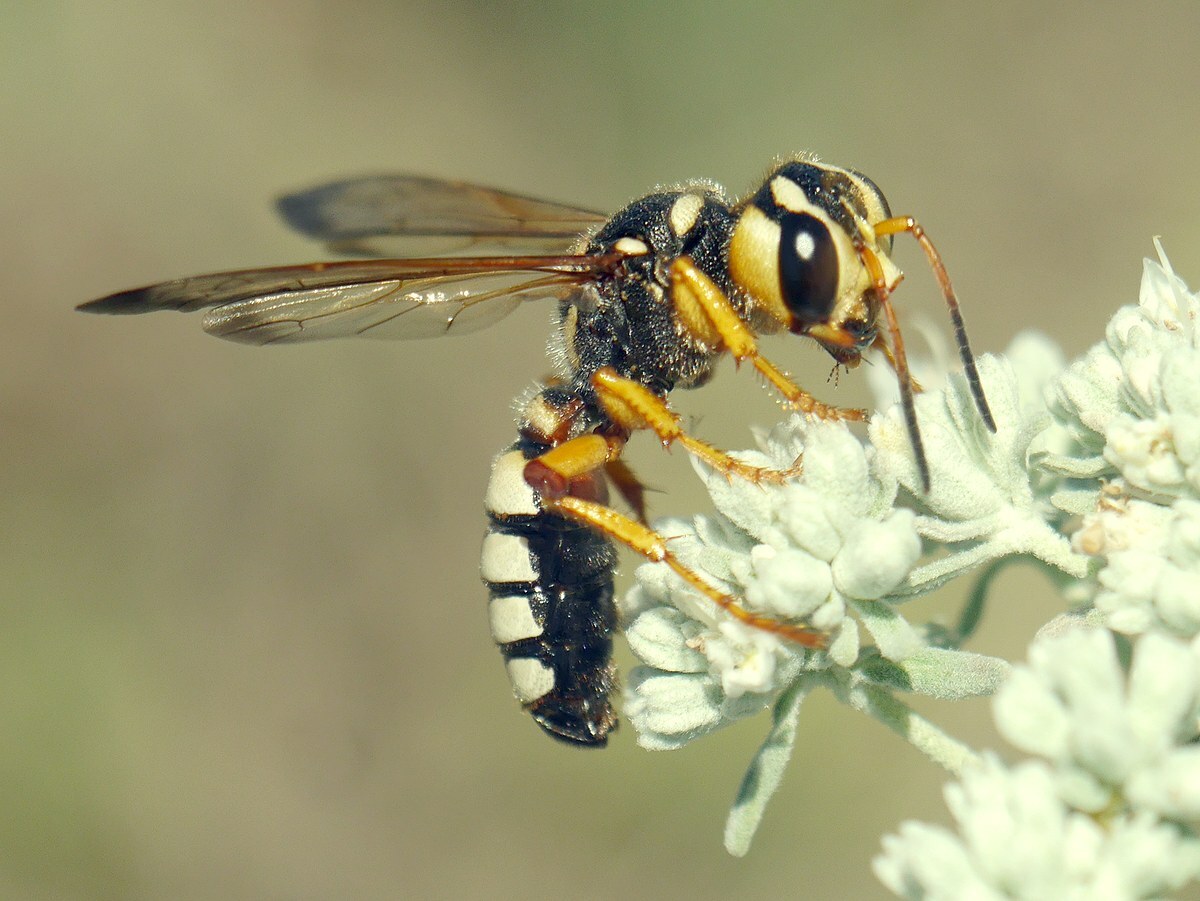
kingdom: Animalia
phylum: Arthropoda
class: Insecta
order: Hymenoptera
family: Crabronidae
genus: Cerceris
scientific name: Cerceris tuberculata
